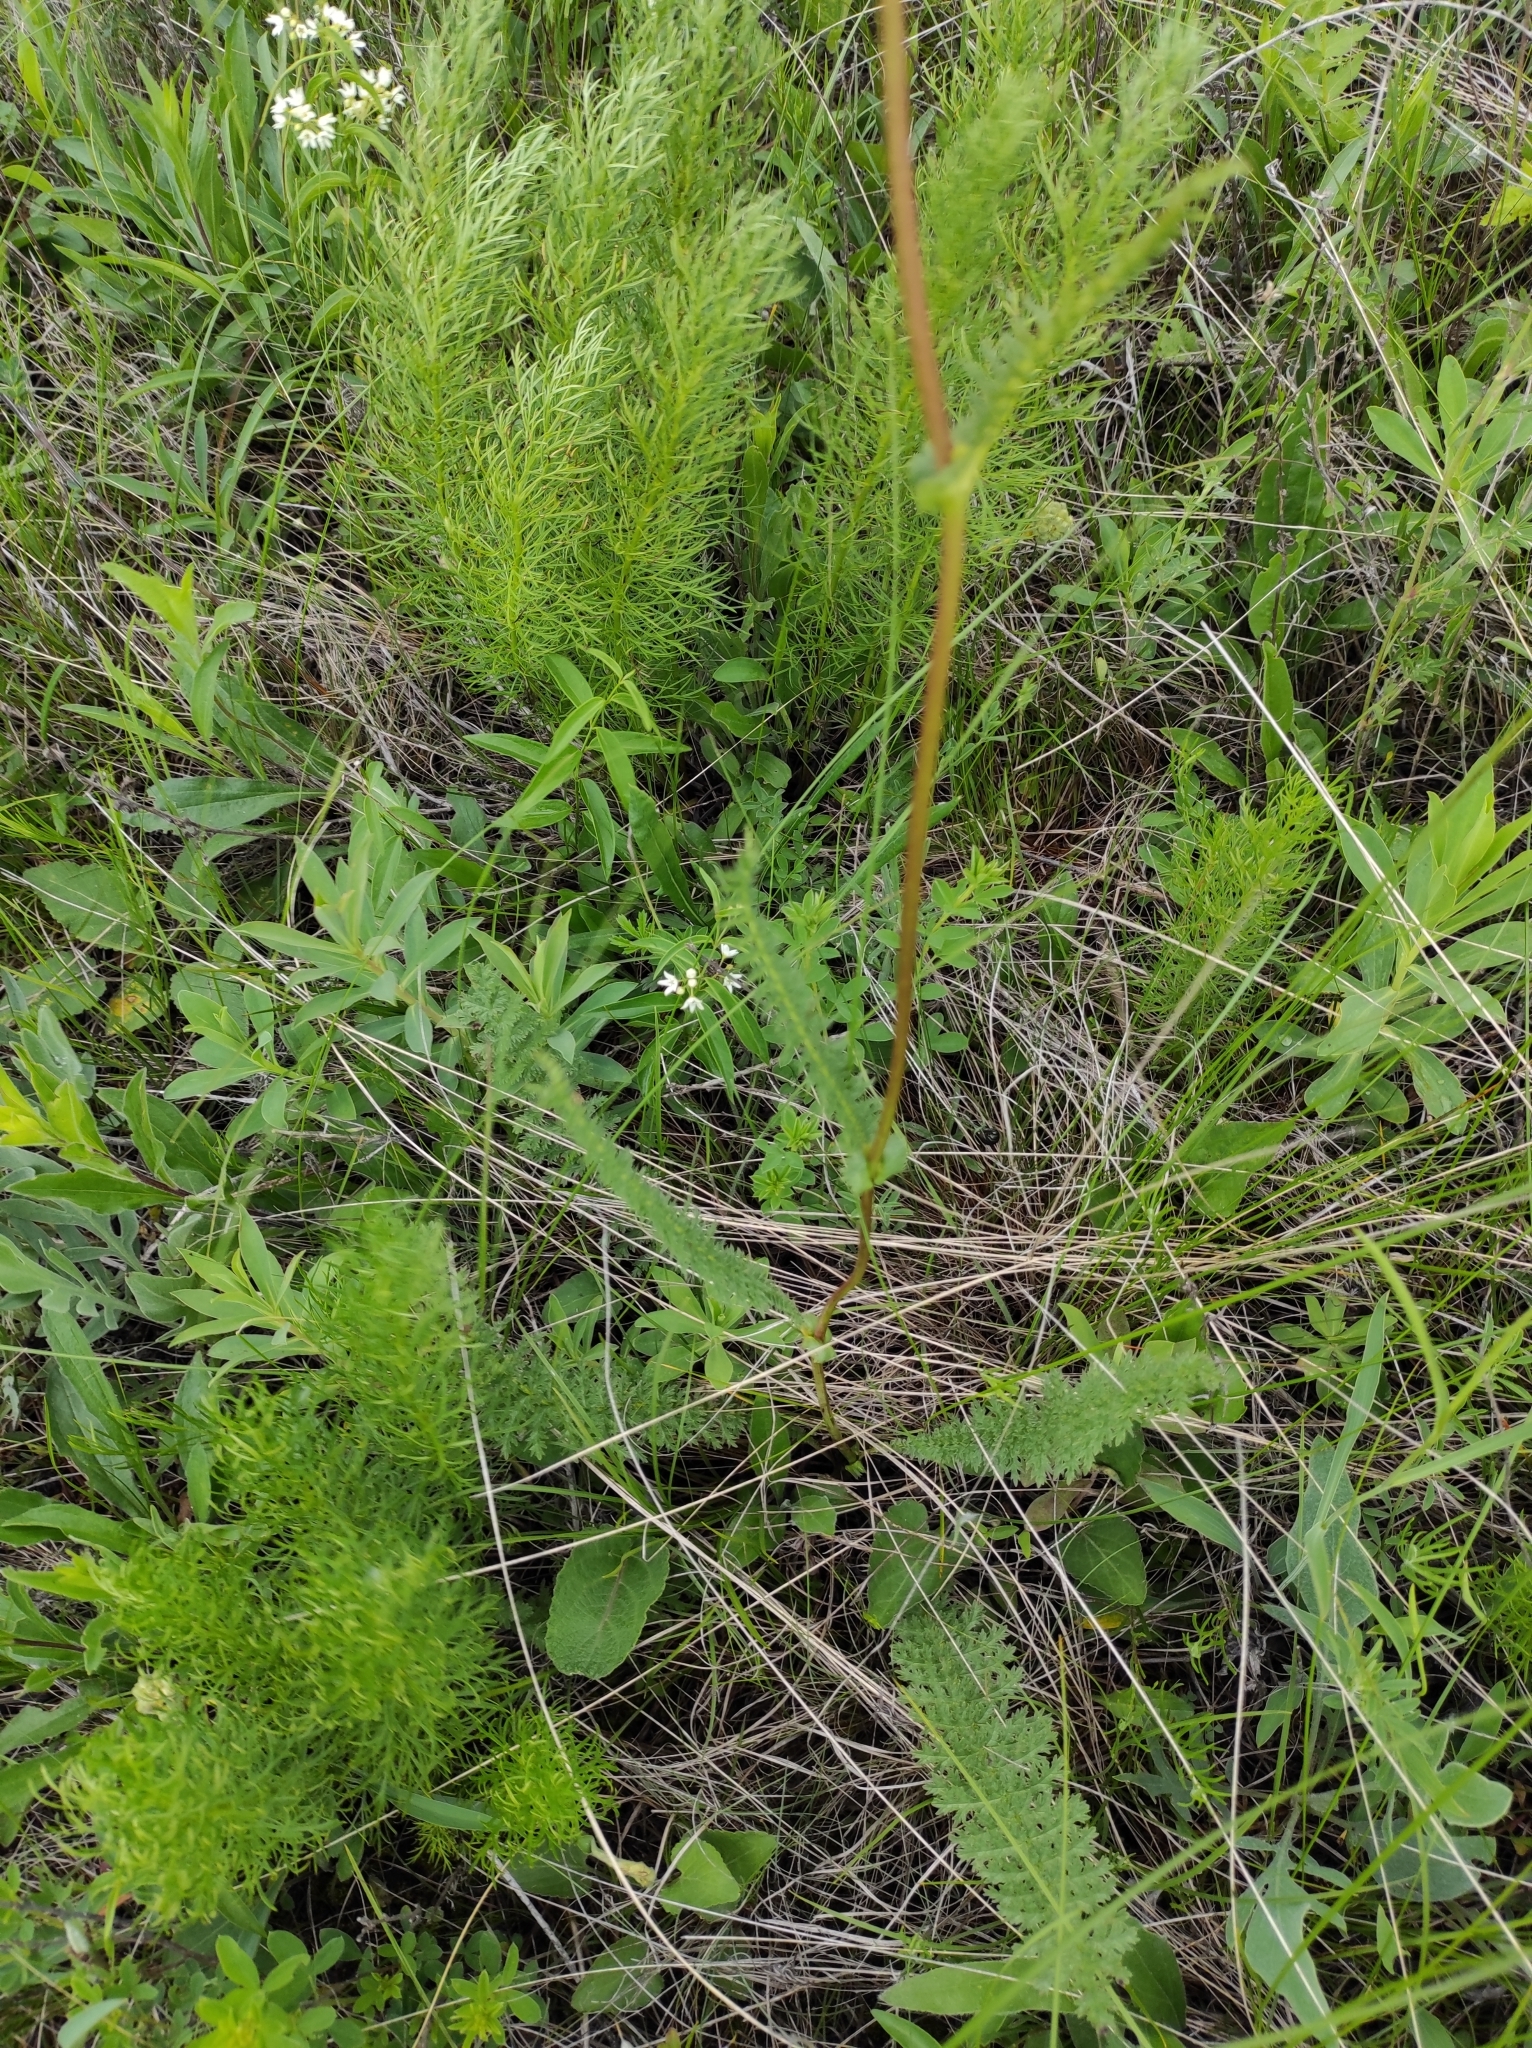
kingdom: Plantae
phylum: Tracheophyta
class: Magnoliopsida
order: Rosales
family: Rosaceae
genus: Filipendula
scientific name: Filipendula vulgaris
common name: Dropwort
